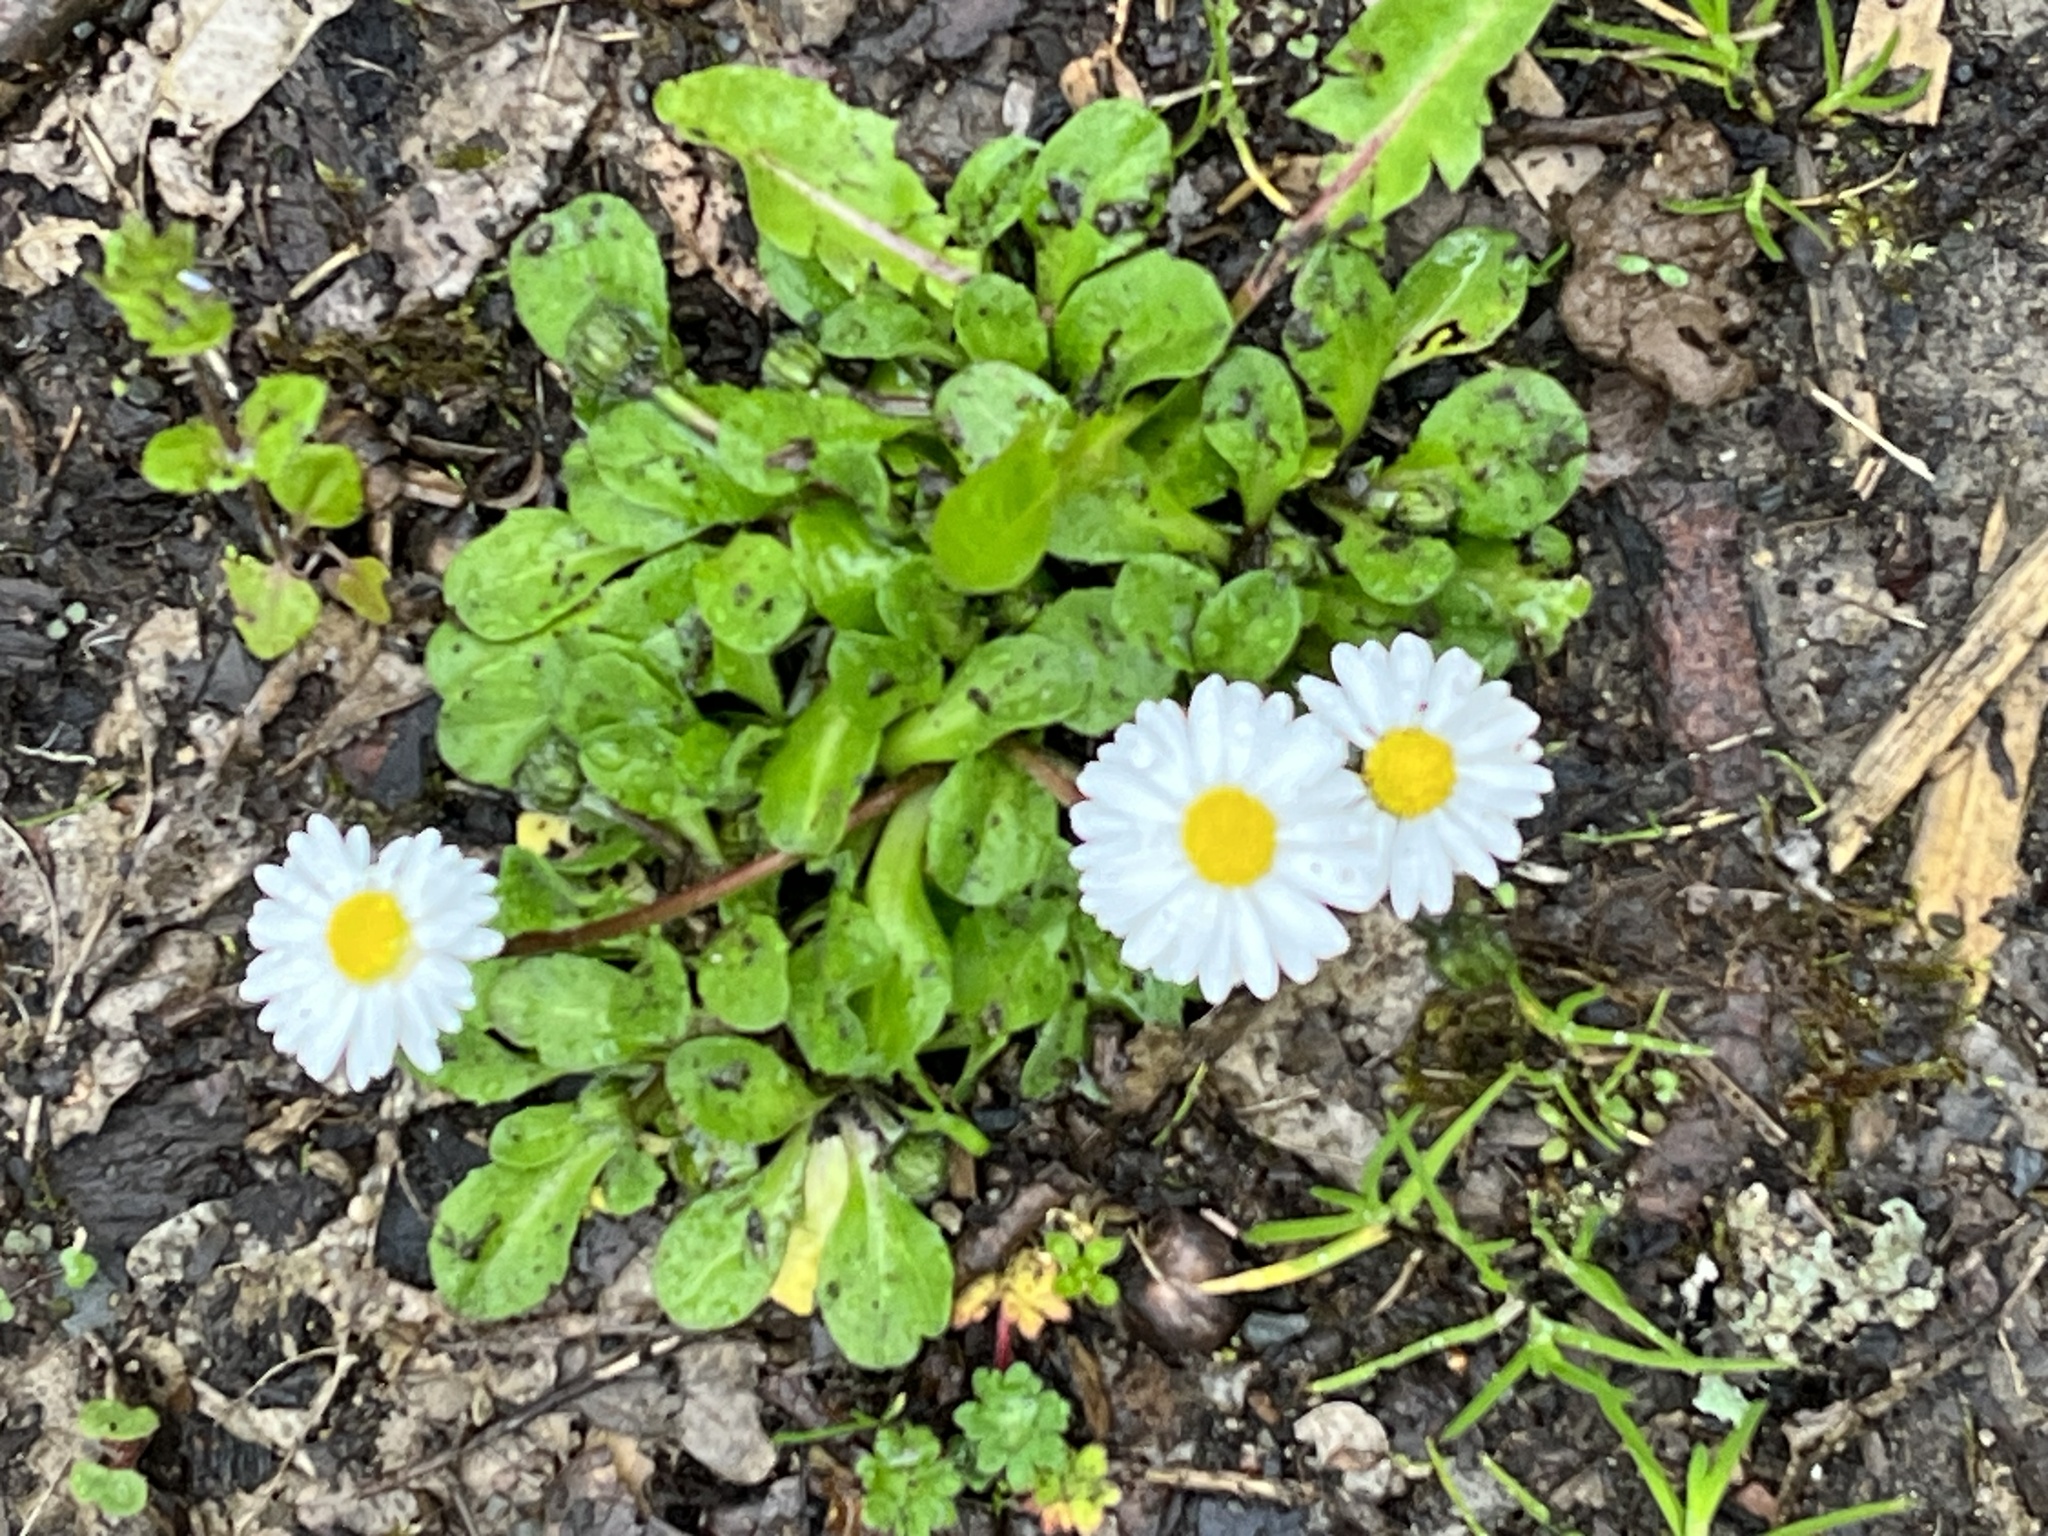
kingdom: Plantae
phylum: Tracheophyta
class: Magnoliopsida
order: Asterales
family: Asteraceae
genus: Bellis
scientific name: Bellis perennis
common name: Lawndaisy
